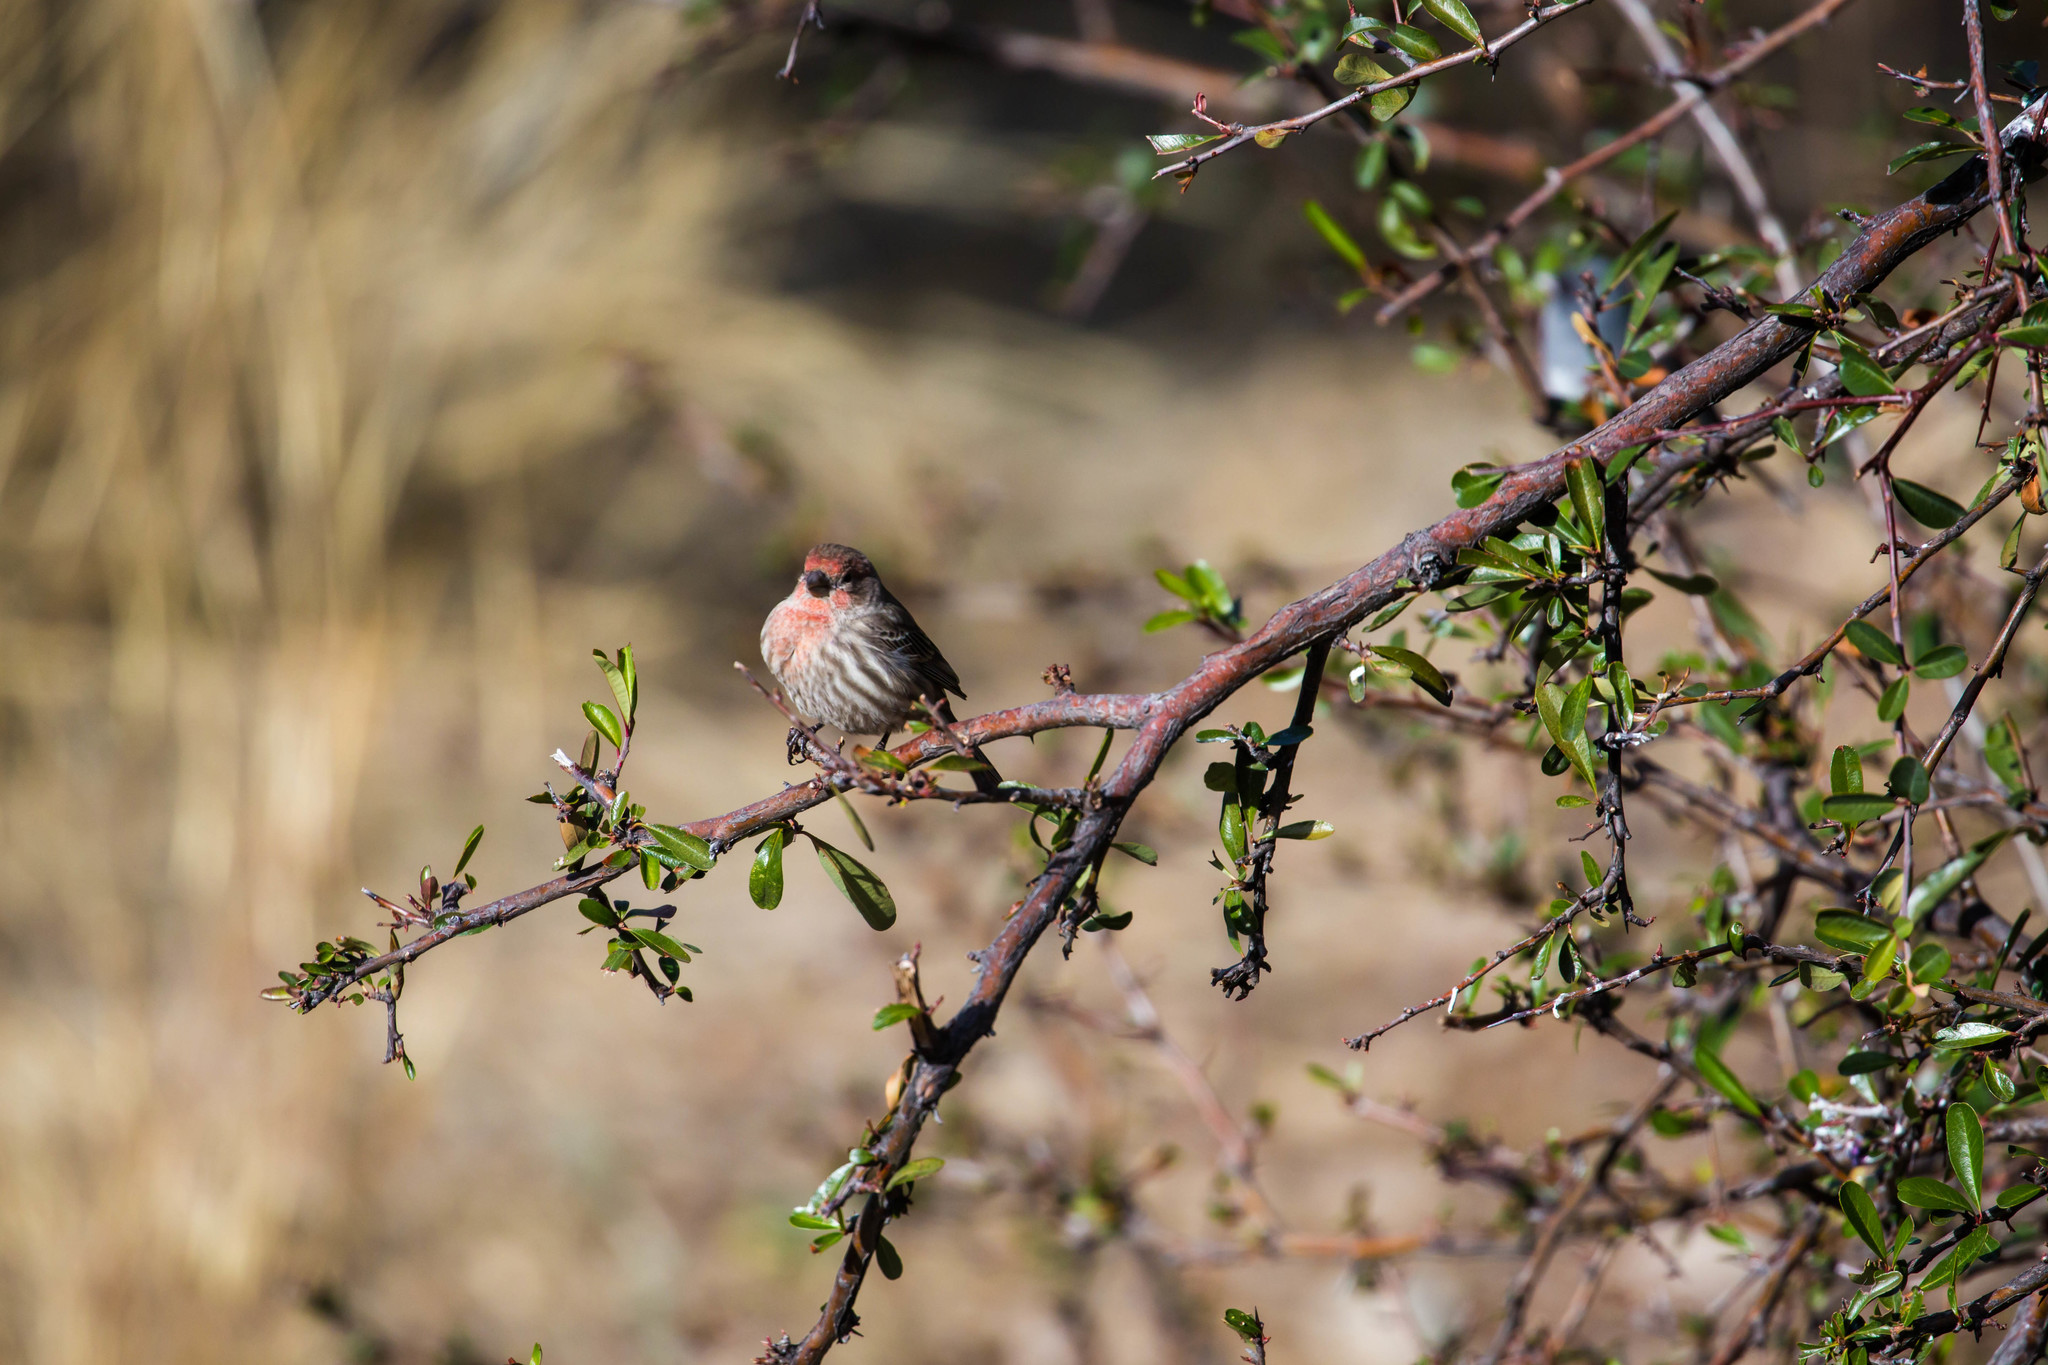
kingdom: Animalia
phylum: Chordata
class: Aves
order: Passeriformes
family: Fringillidae
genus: Haemorhous
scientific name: Haemorhous mexicanus
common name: House finch
